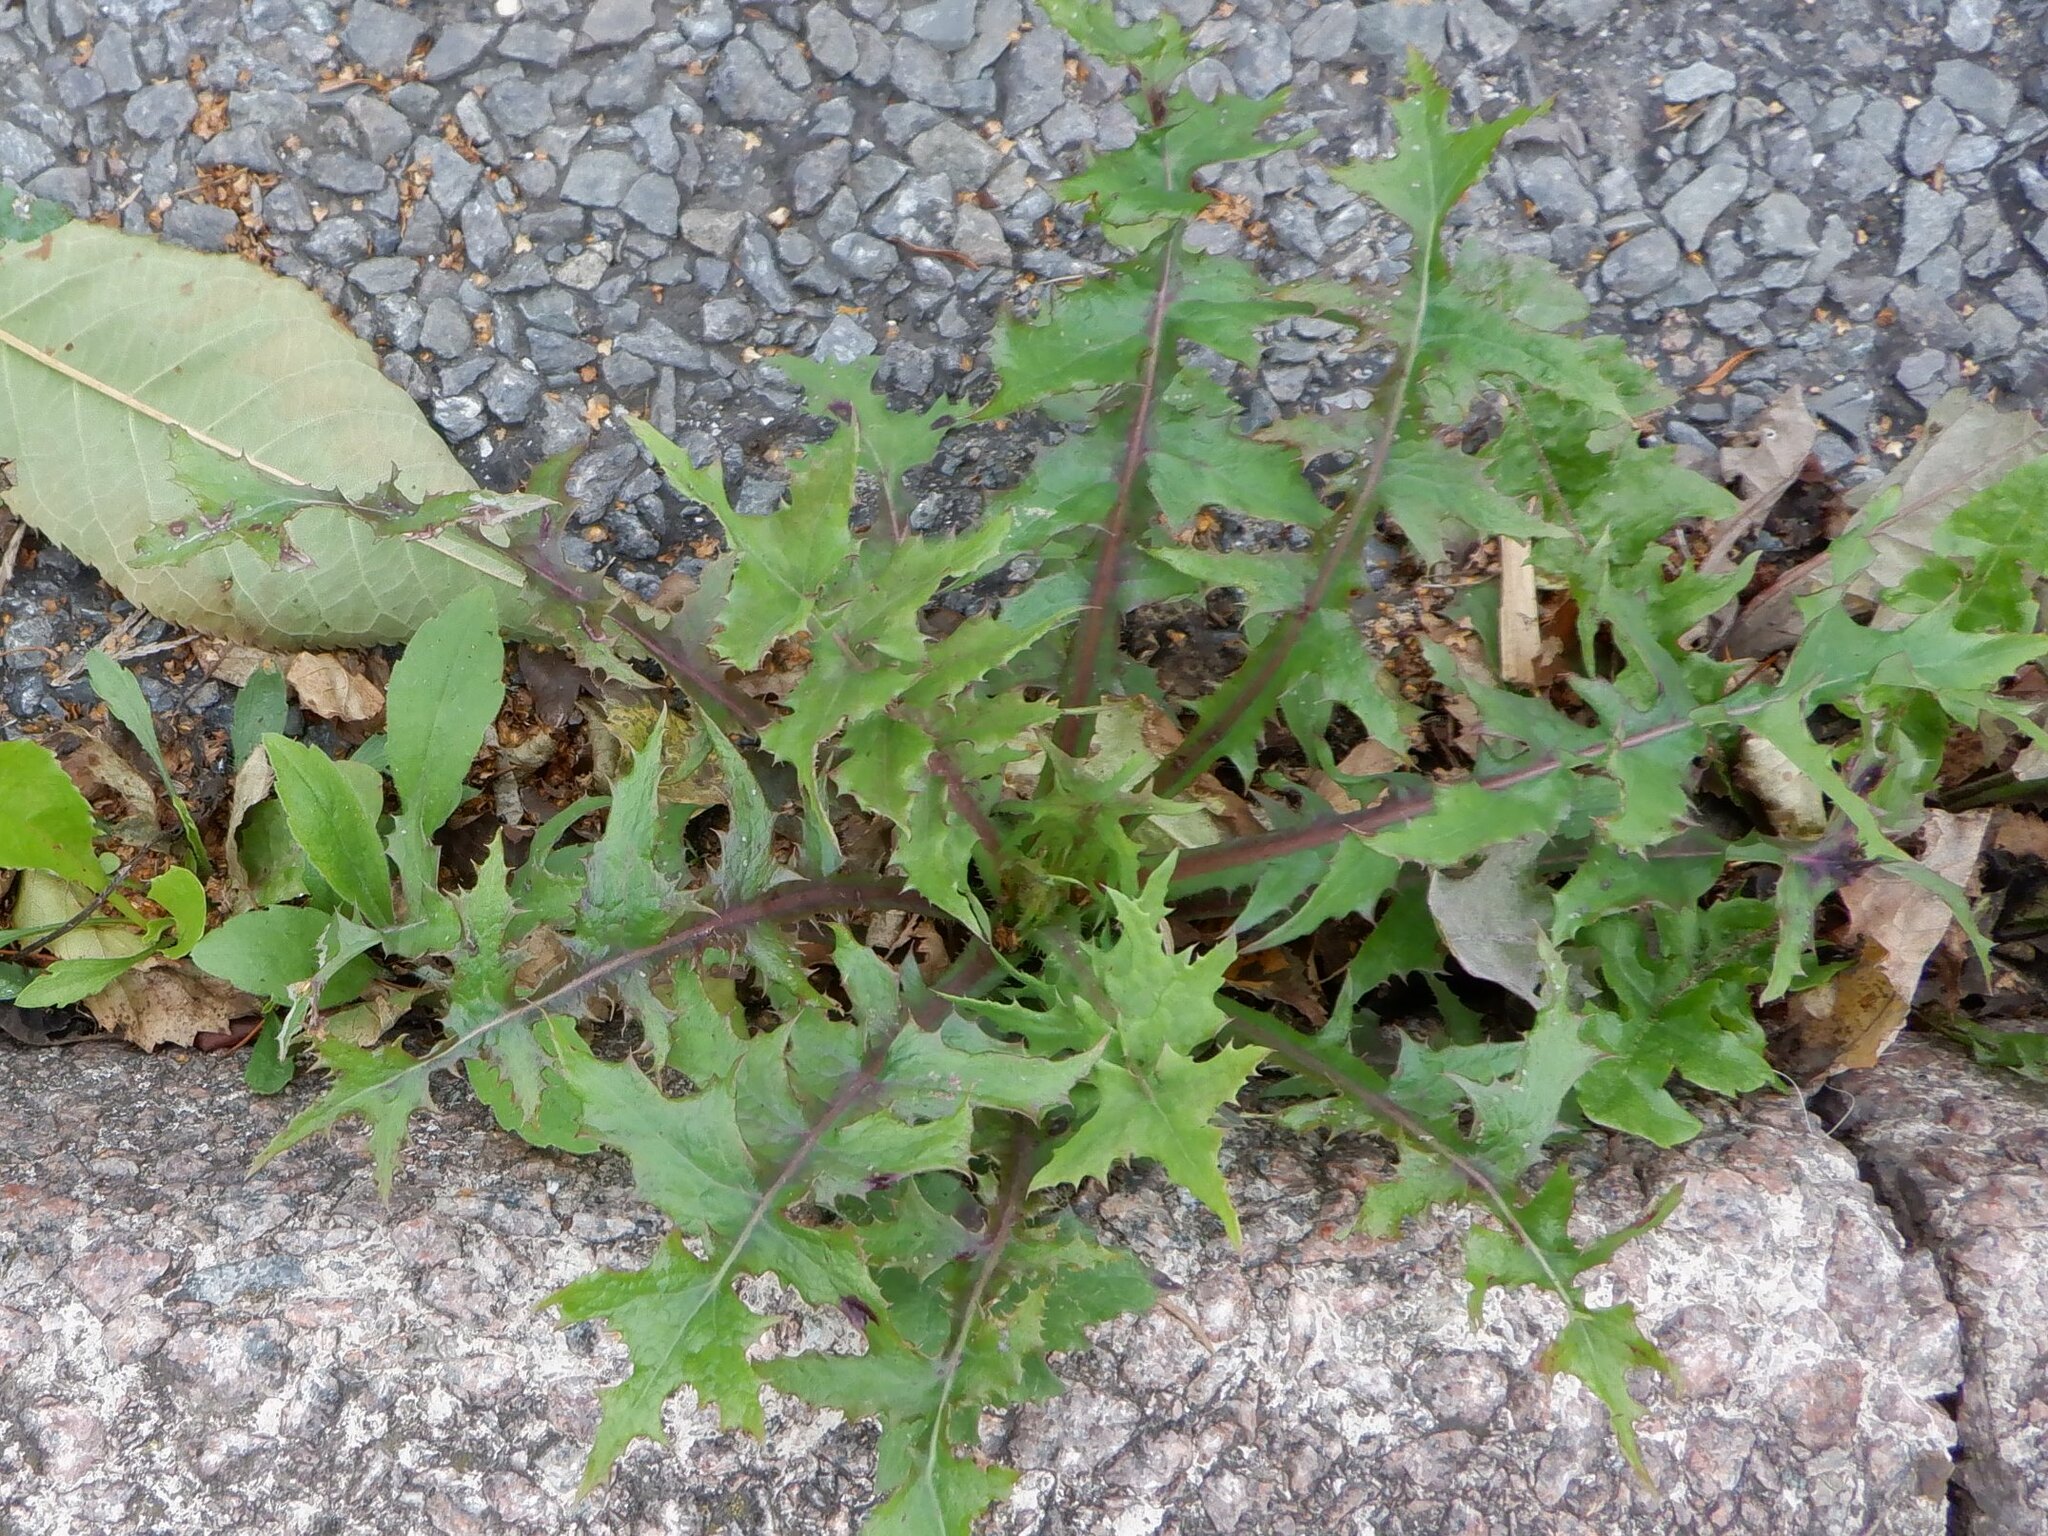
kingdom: Plantae
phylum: Tracheophyta
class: Magnoliopsida
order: Asterales
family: Asteraceae
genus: Sonchus
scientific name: Sonchus oleraceus
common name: Common sowthistle
